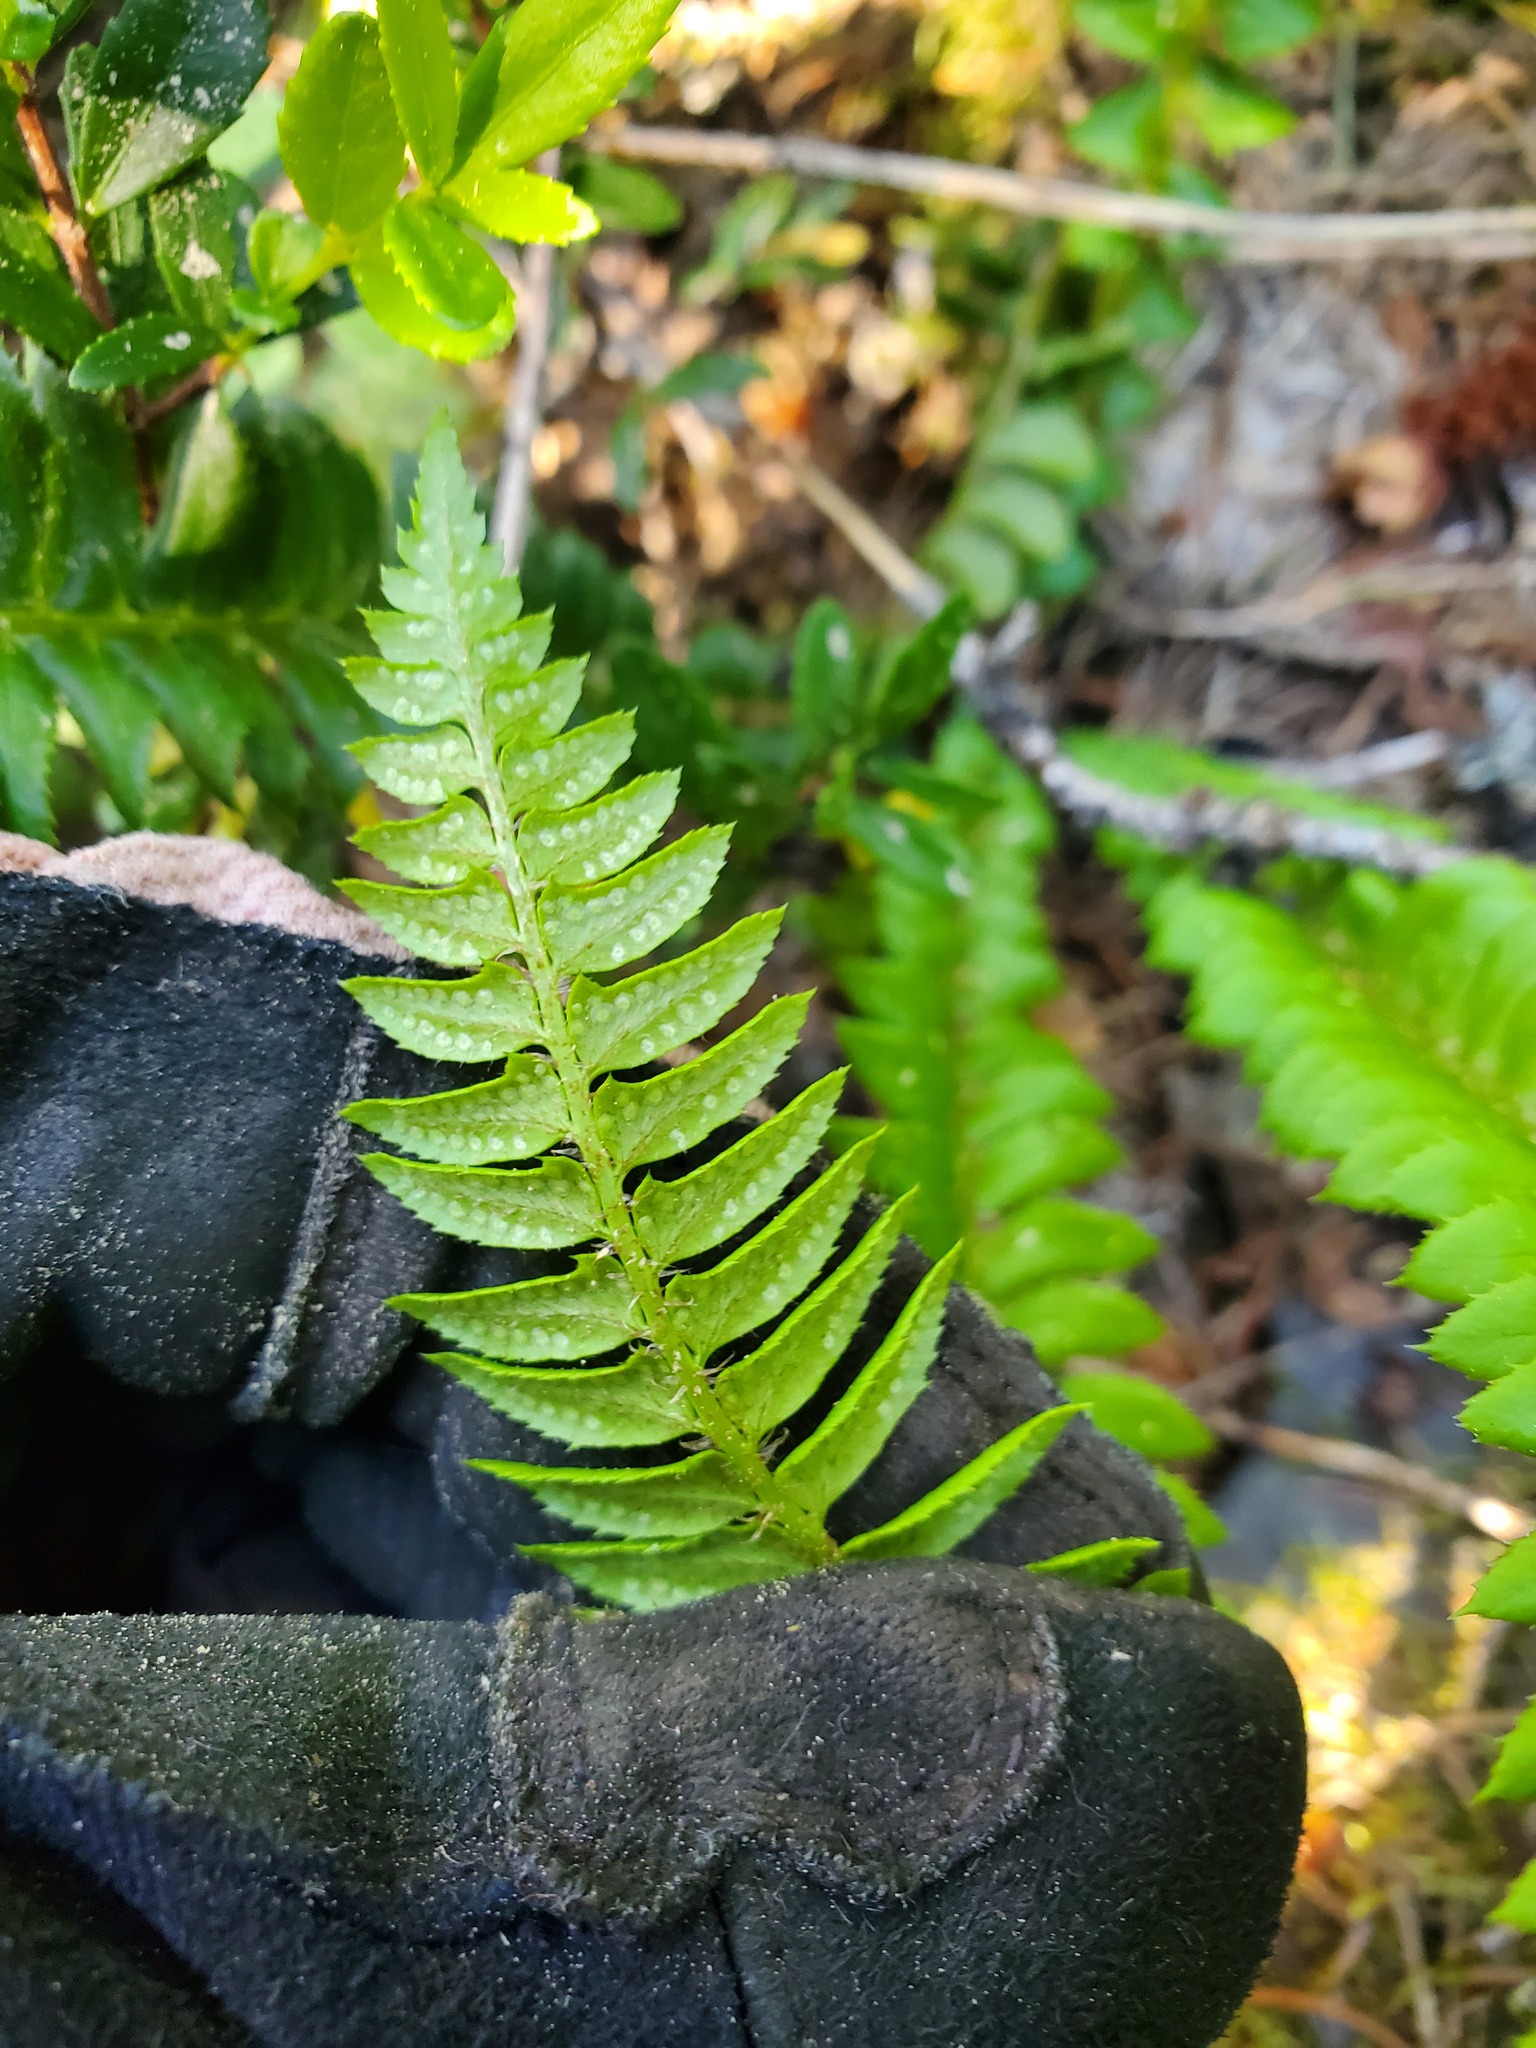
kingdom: Plantae
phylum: Tracheophyta
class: Polypodiopsida
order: Polypodiales
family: Dryopteridaceae
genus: Polystichum
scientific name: Polystichum lonchitis
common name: Holly fern
